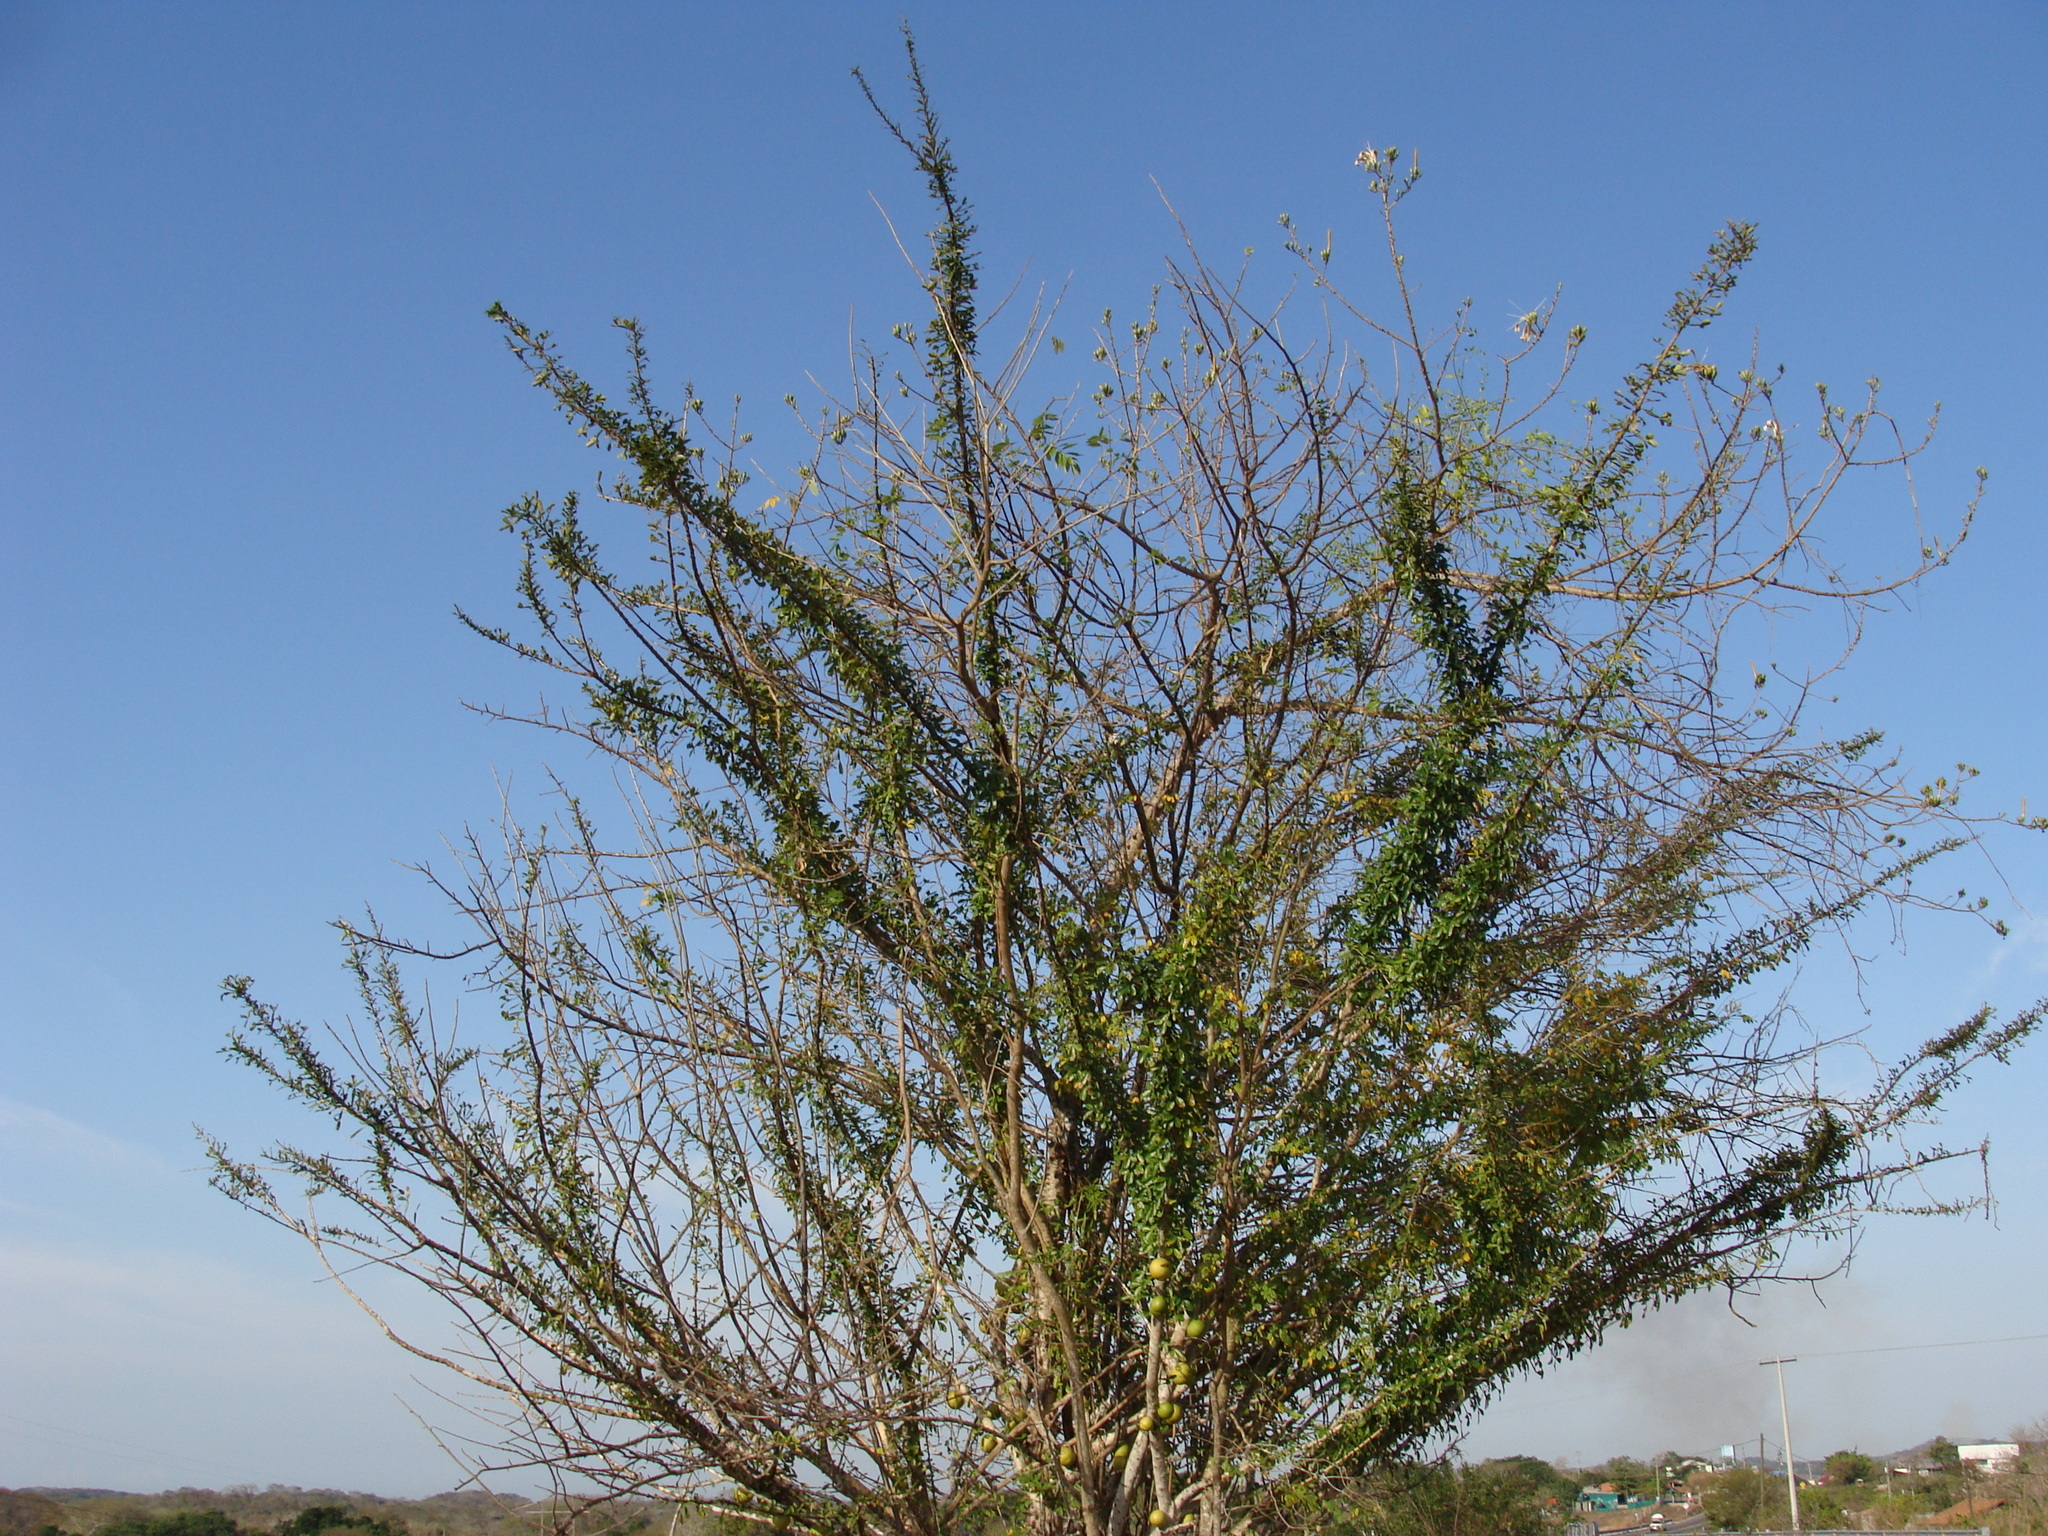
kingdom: Plantae
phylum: Tracheophyta
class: Magnoliopsida
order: Lamiales
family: Bignoniaceae
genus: Crescentia
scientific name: Crescentia alata
